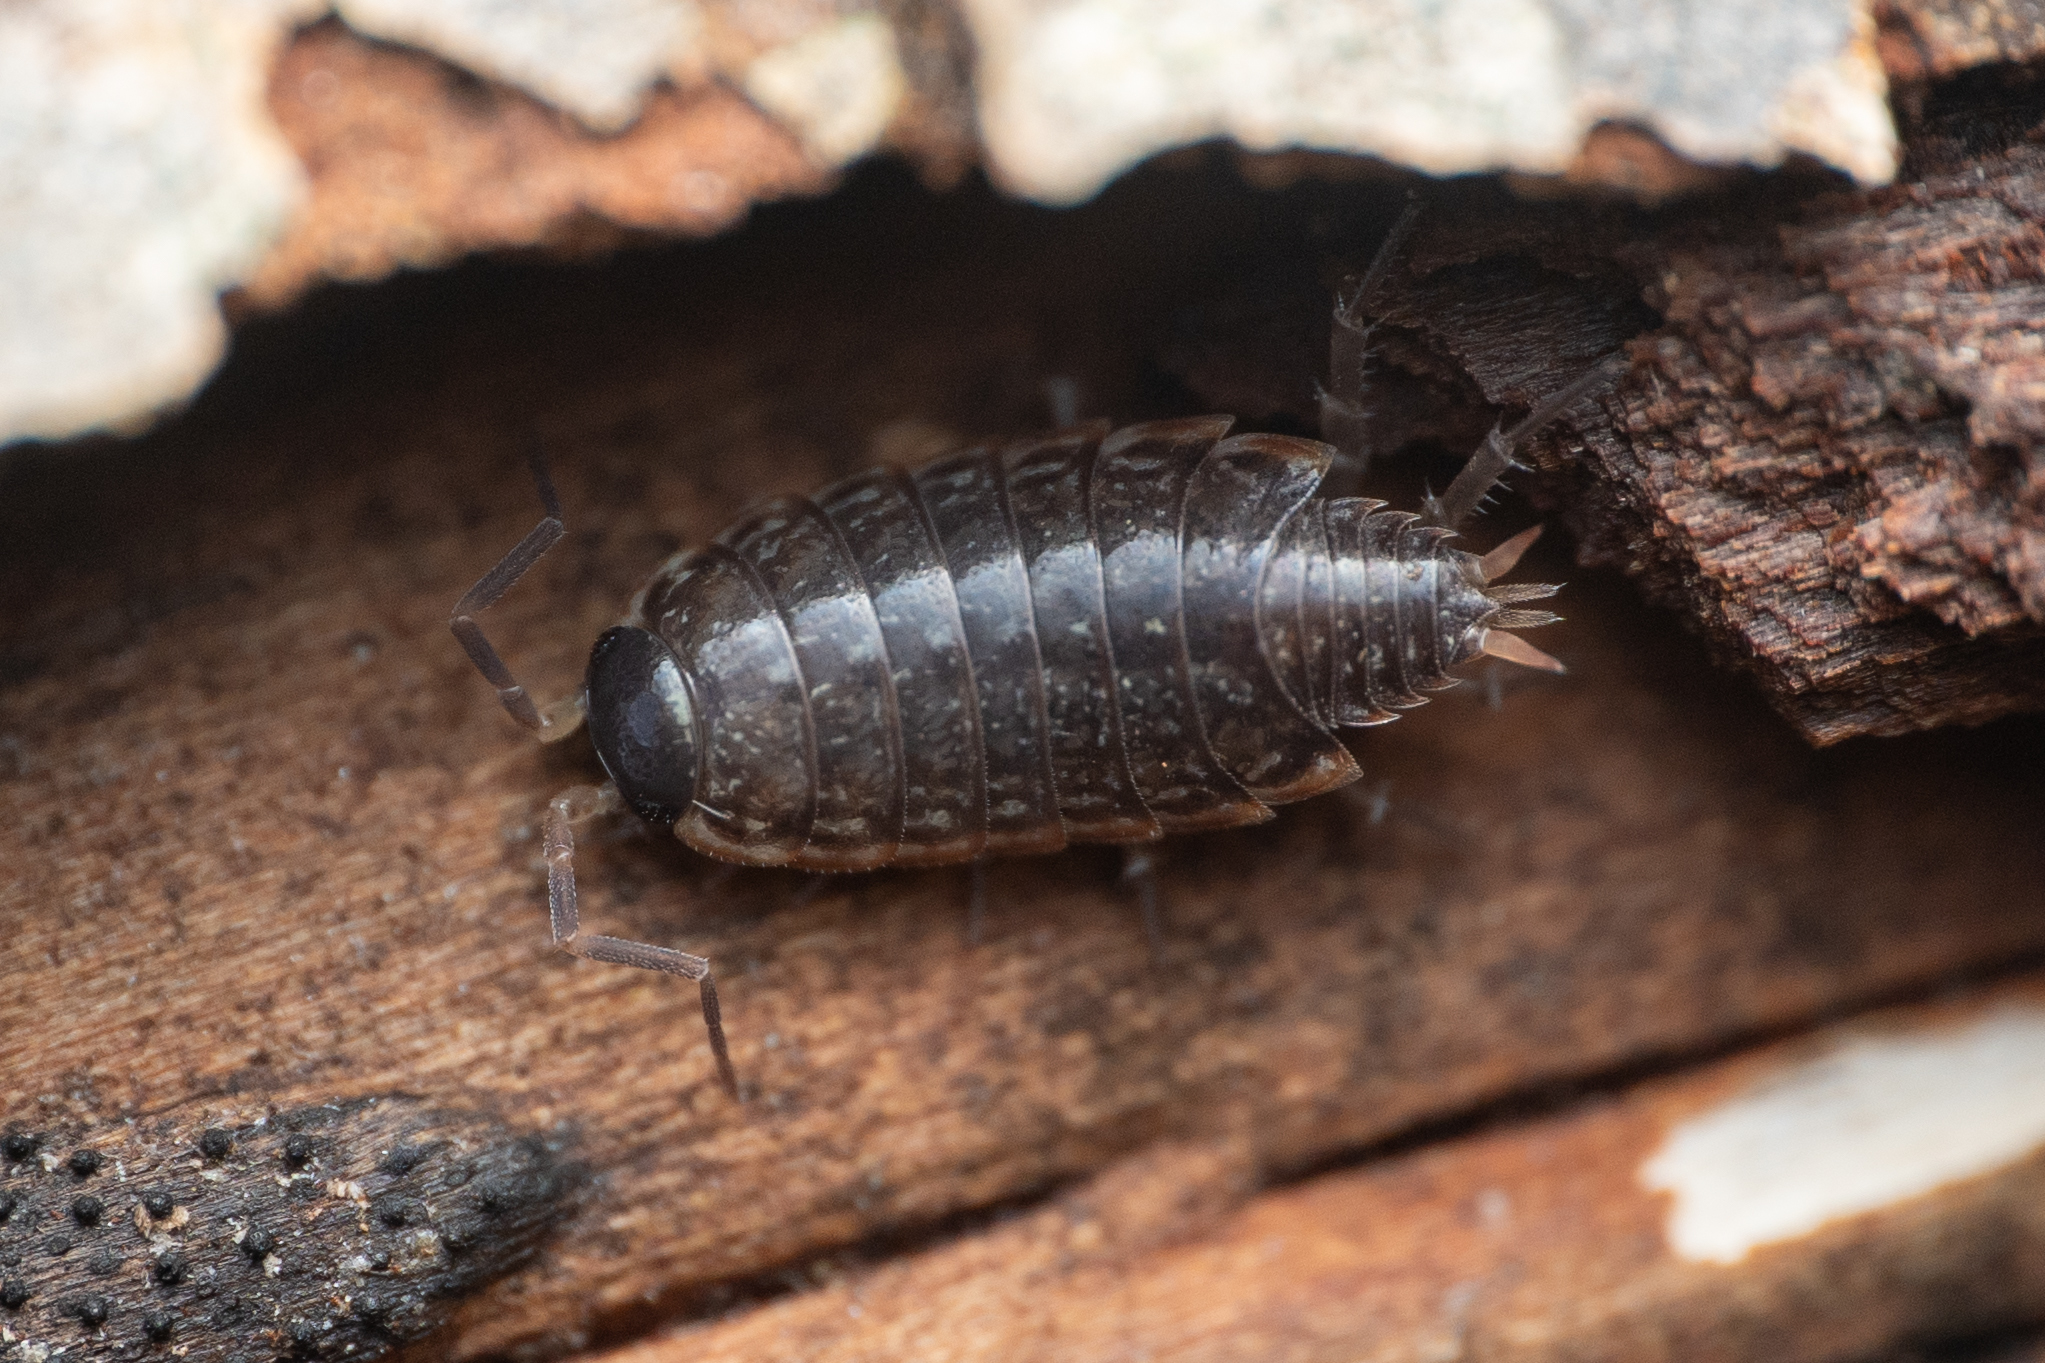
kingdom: Animalia
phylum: Arthropoda
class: Malacostraca
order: Isopoda
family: Philosciidae
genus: Philoscia
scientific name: Philoscia muscorum
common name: Common striped woodlouse
